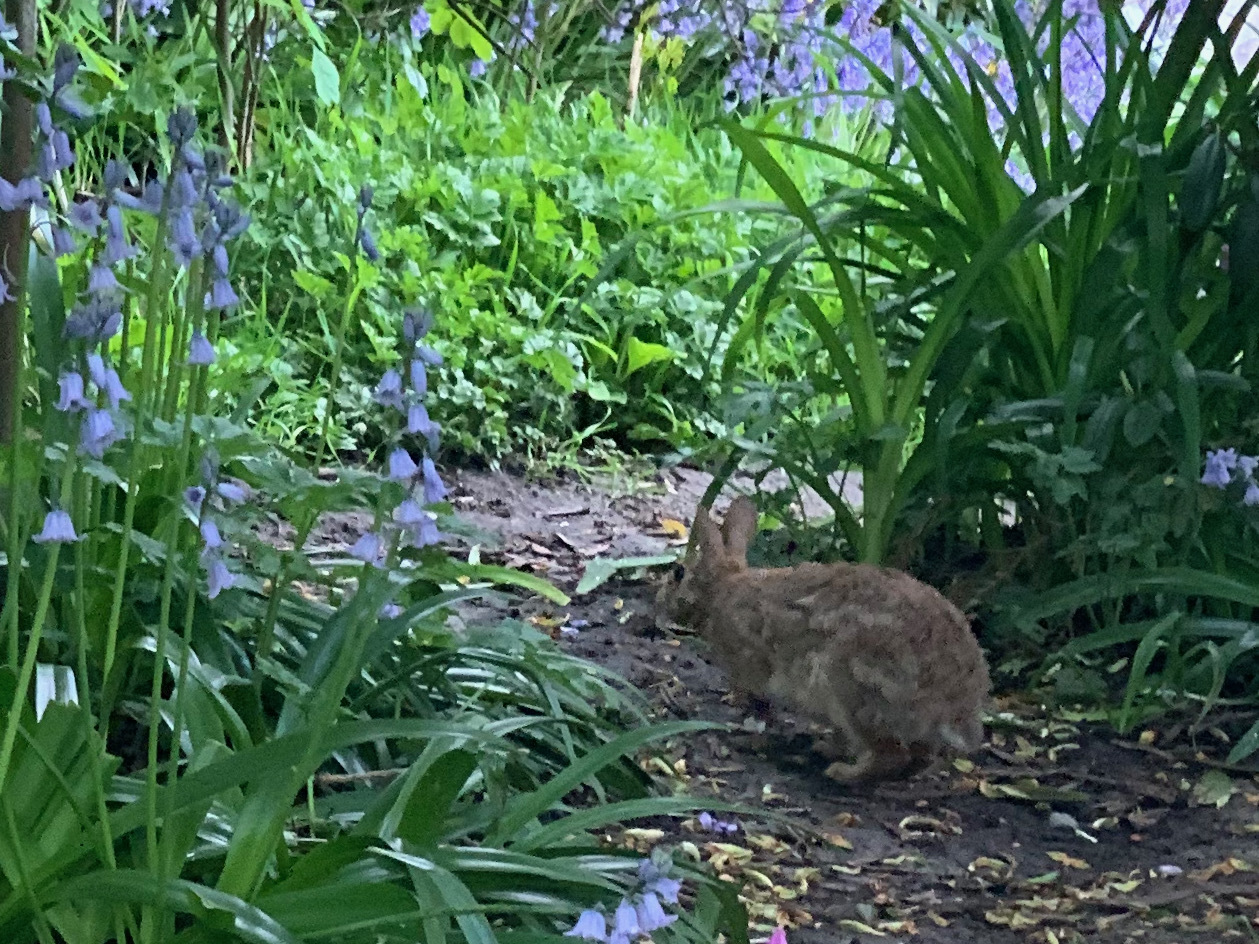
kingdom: Animalia
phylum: Chordata
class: Mammalia
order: Lagomorpha
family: Leporidae
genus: Sylvilagus
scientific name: Sylvilagus floridanus
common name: Eastern cottontail
